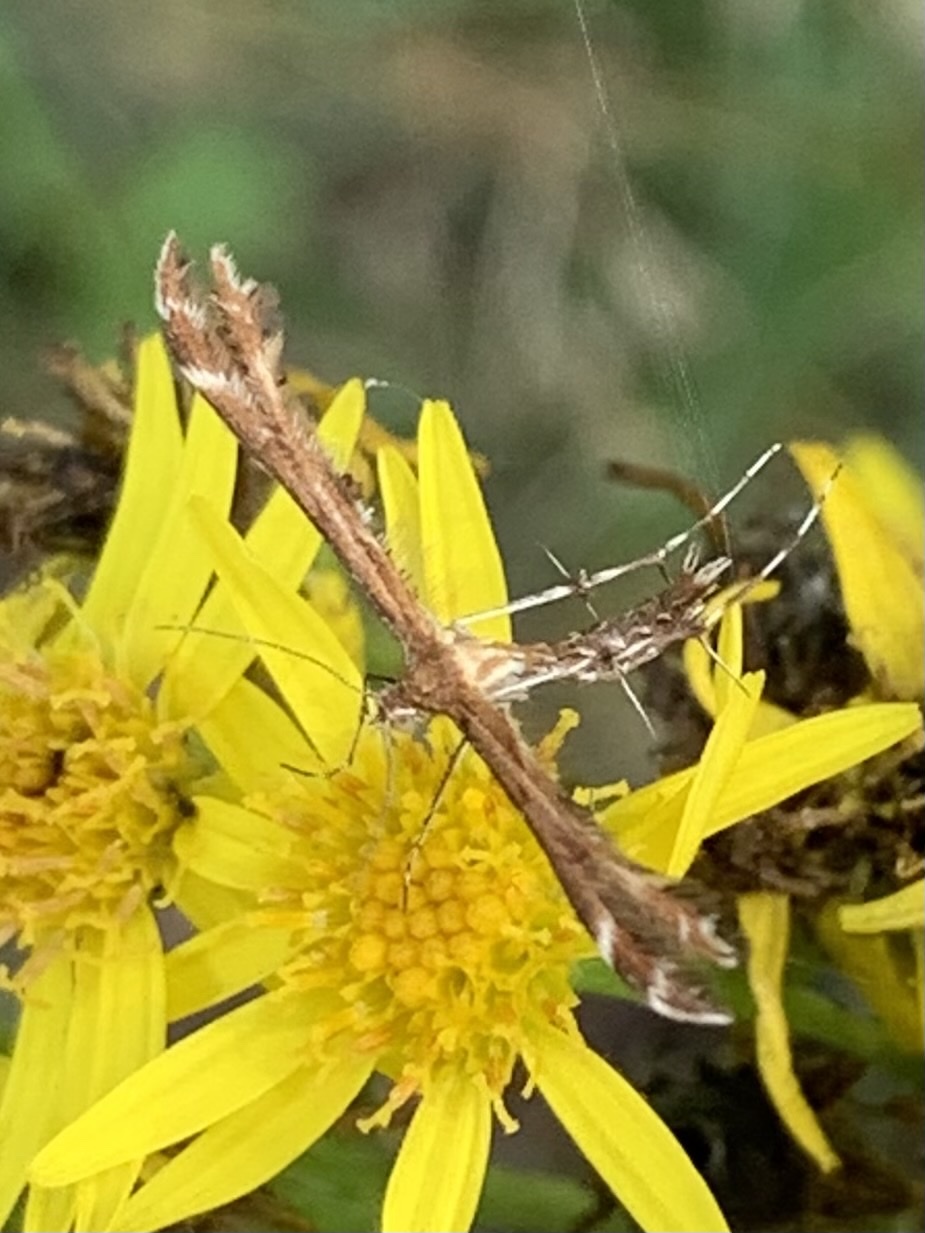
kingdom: Animalia
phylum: Arthropoda
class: Insecta
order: Lepidoptera
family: Pterophoridae
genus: Gillmeria
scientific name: Gillmeria pallidactyla
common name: Yarrow plume
